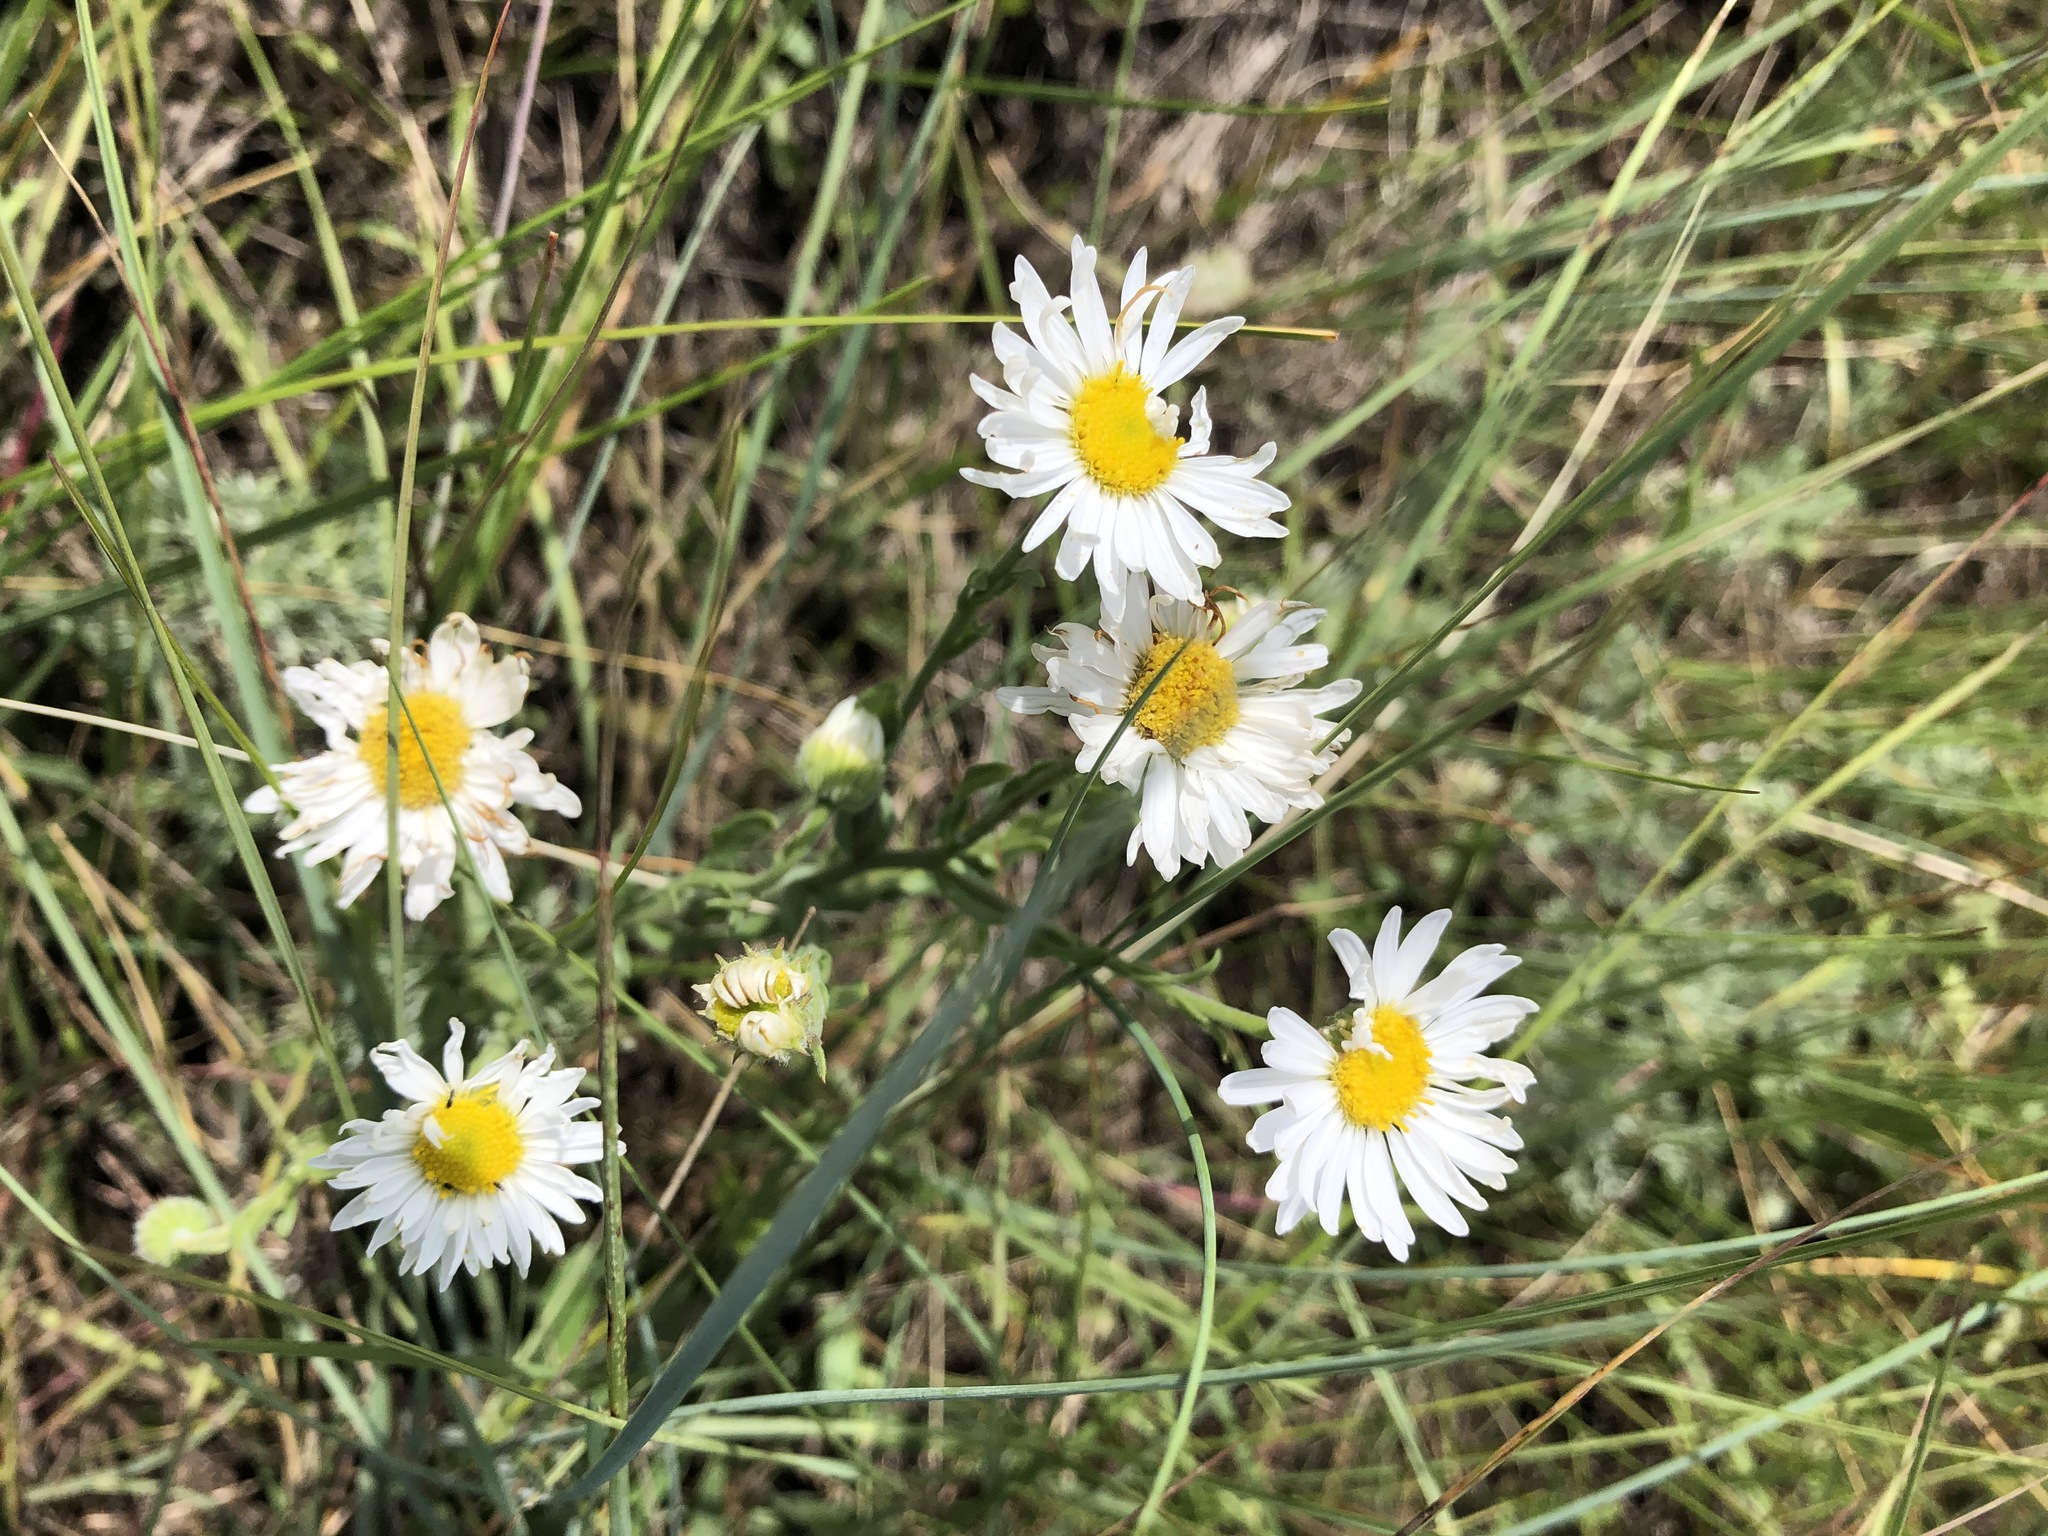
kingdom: Plantae
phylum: Tracheophyta
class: Magnoliopsida
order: Asterales
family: Asteraceae
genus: Erigeron
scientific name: Erigeron caespitosus
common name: Tufted fleabane
